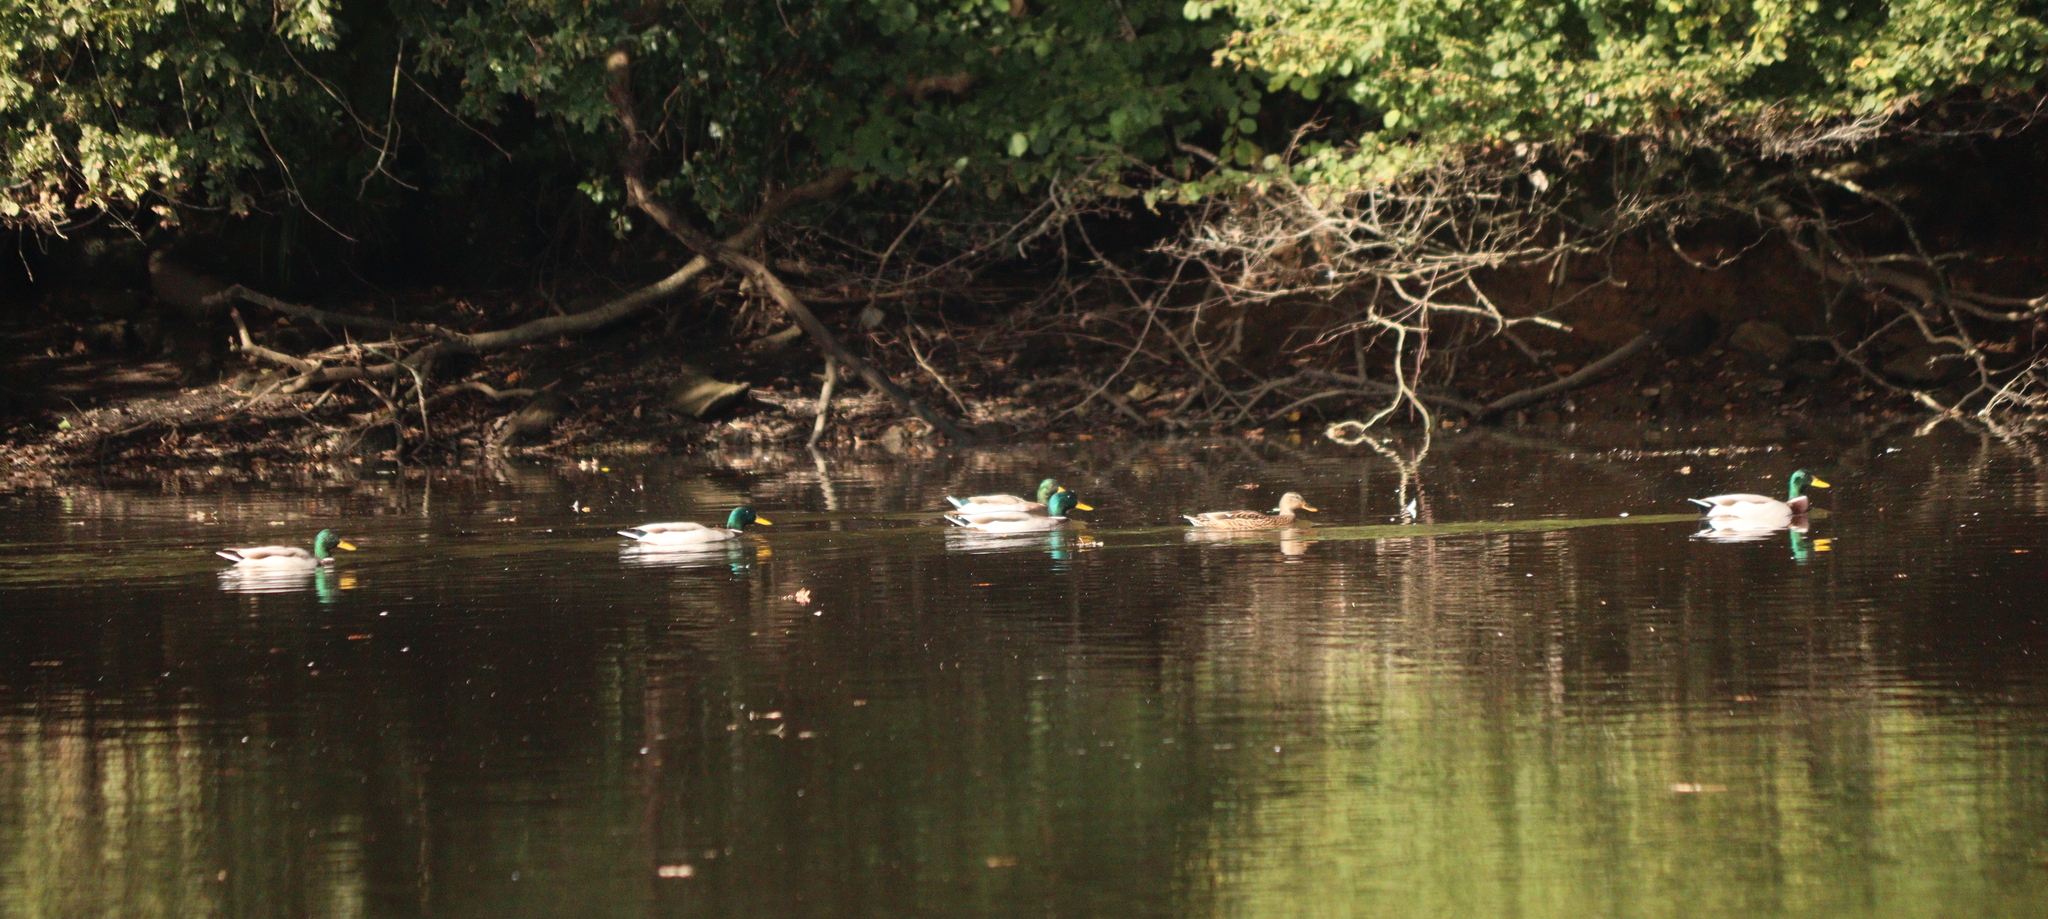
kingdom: Animalia
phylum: Chordata
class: Aves
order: Anseriformes
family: Anatidae
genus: Anas
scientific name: Anas platyrhynchos
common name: Mallard
